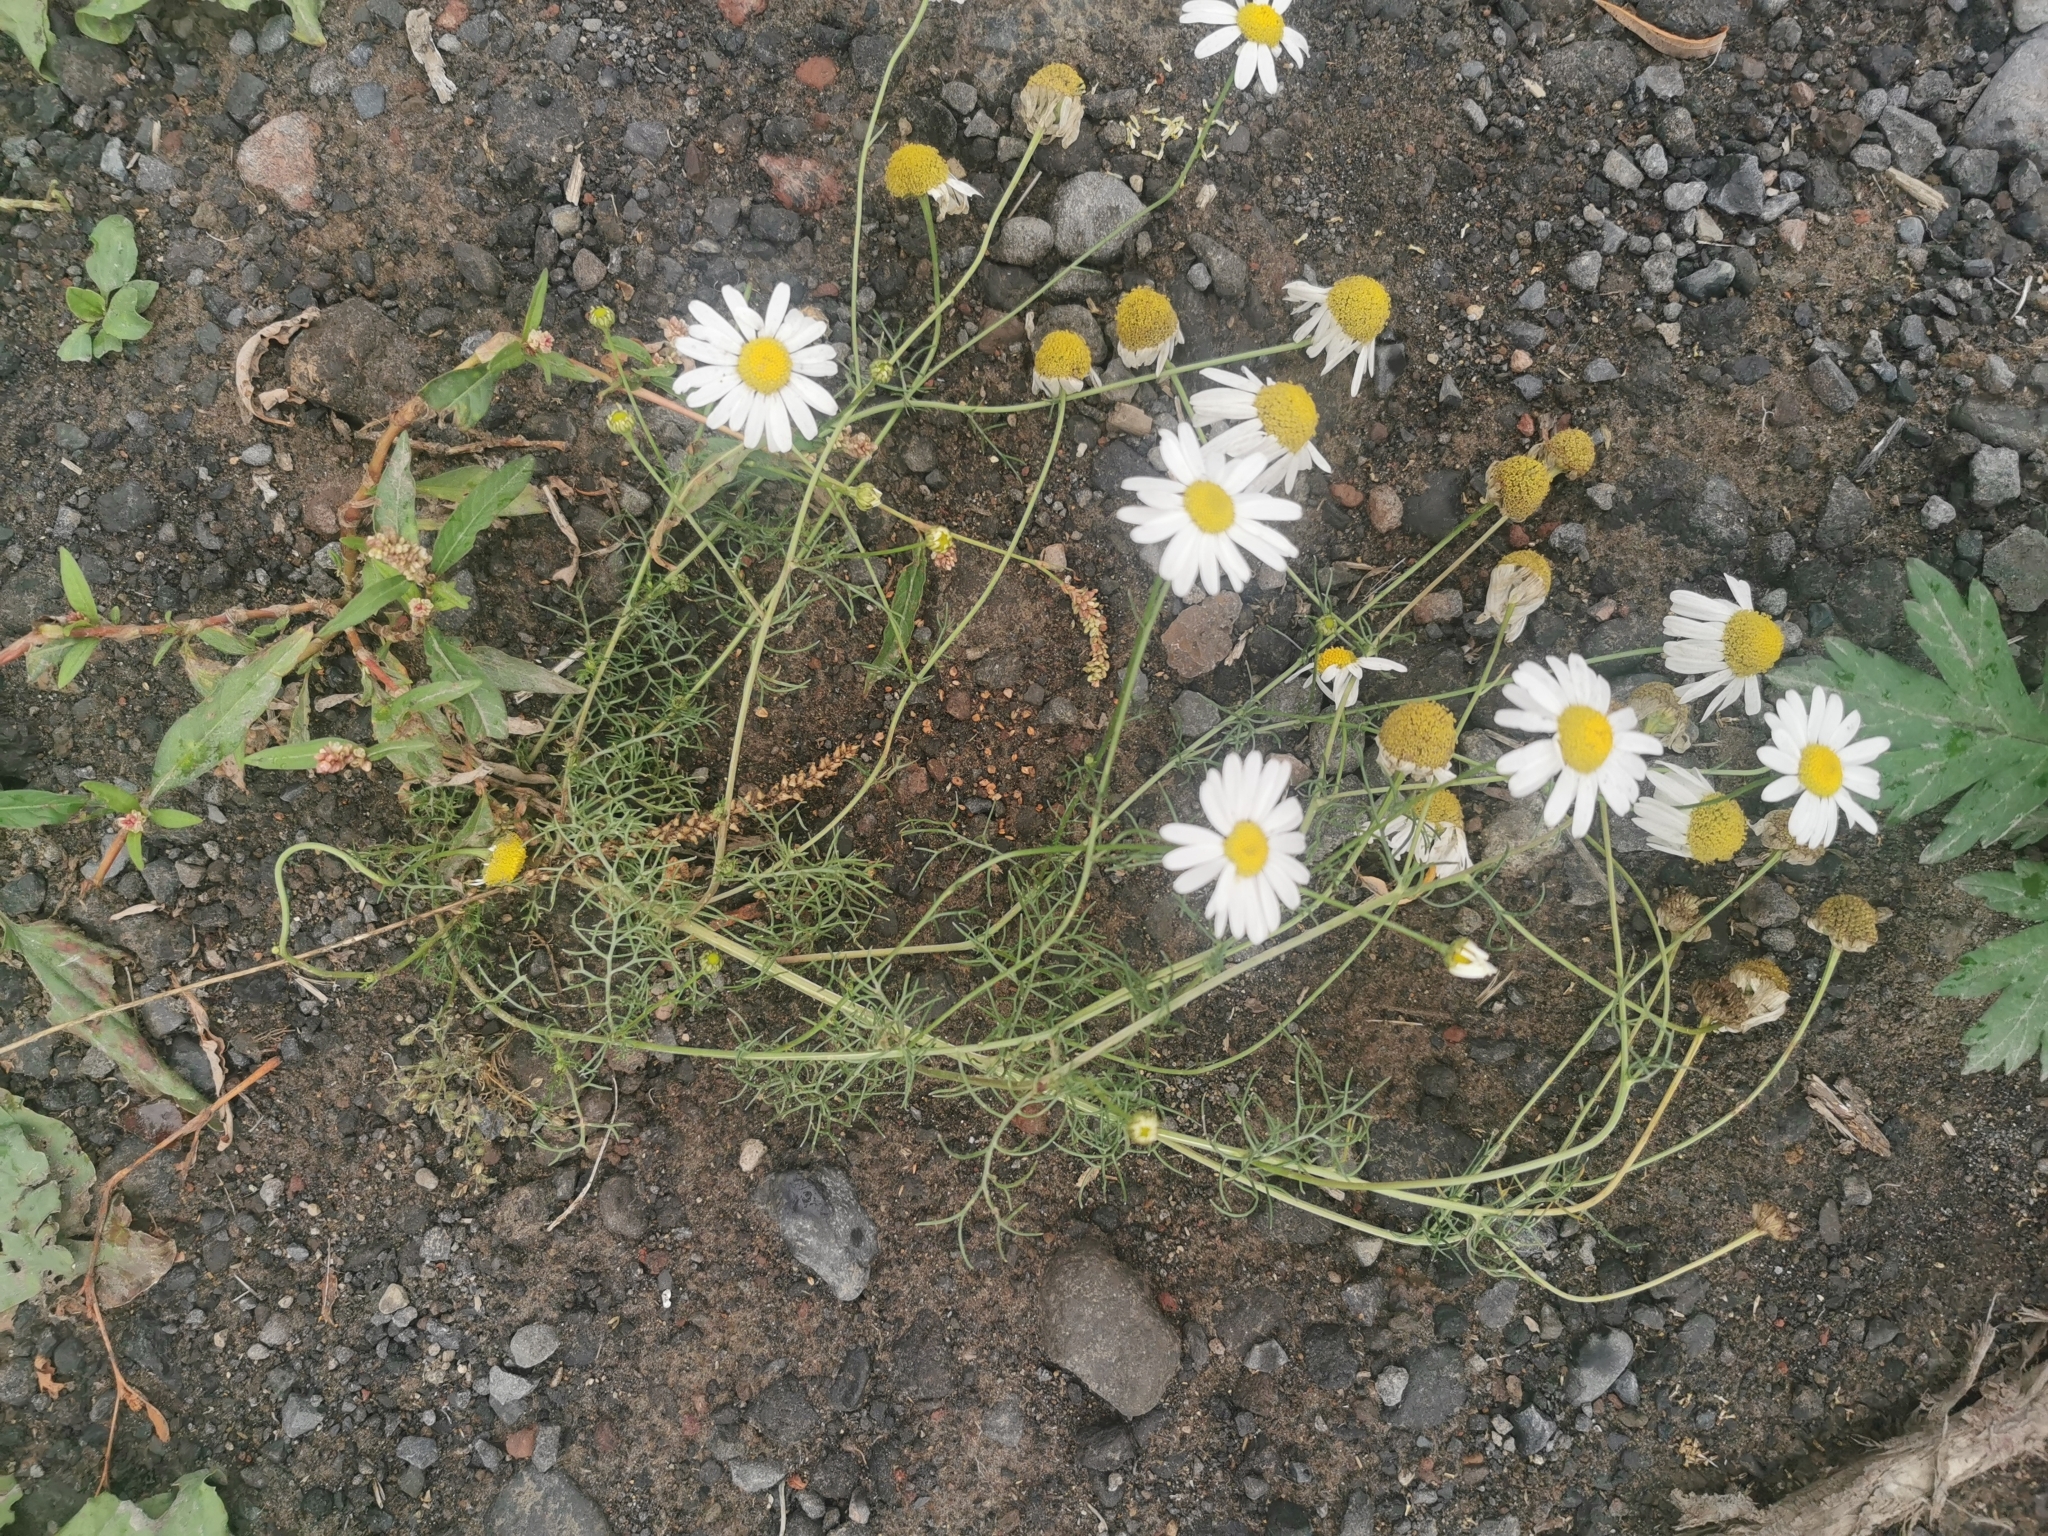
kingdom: Plantae
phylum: Tracheophyta
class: Magnoliopsida
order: Asterales
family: Asteraceae
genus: Tripleurospermum
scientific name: Tripleurospermum inodorum
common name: Scentless mayweed
